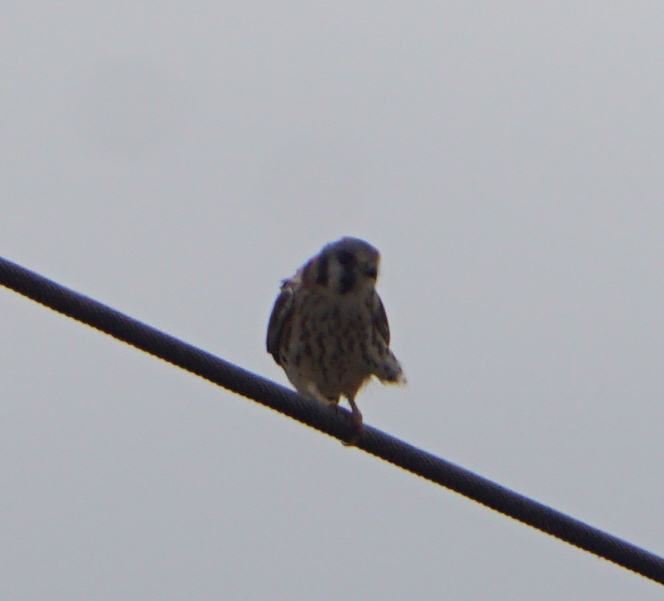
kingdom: Animalia
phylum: Chordata
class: Aves
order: Falconiformes
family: Falconidae
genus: Falco
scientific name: Falco sparverius
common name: American kestrel
